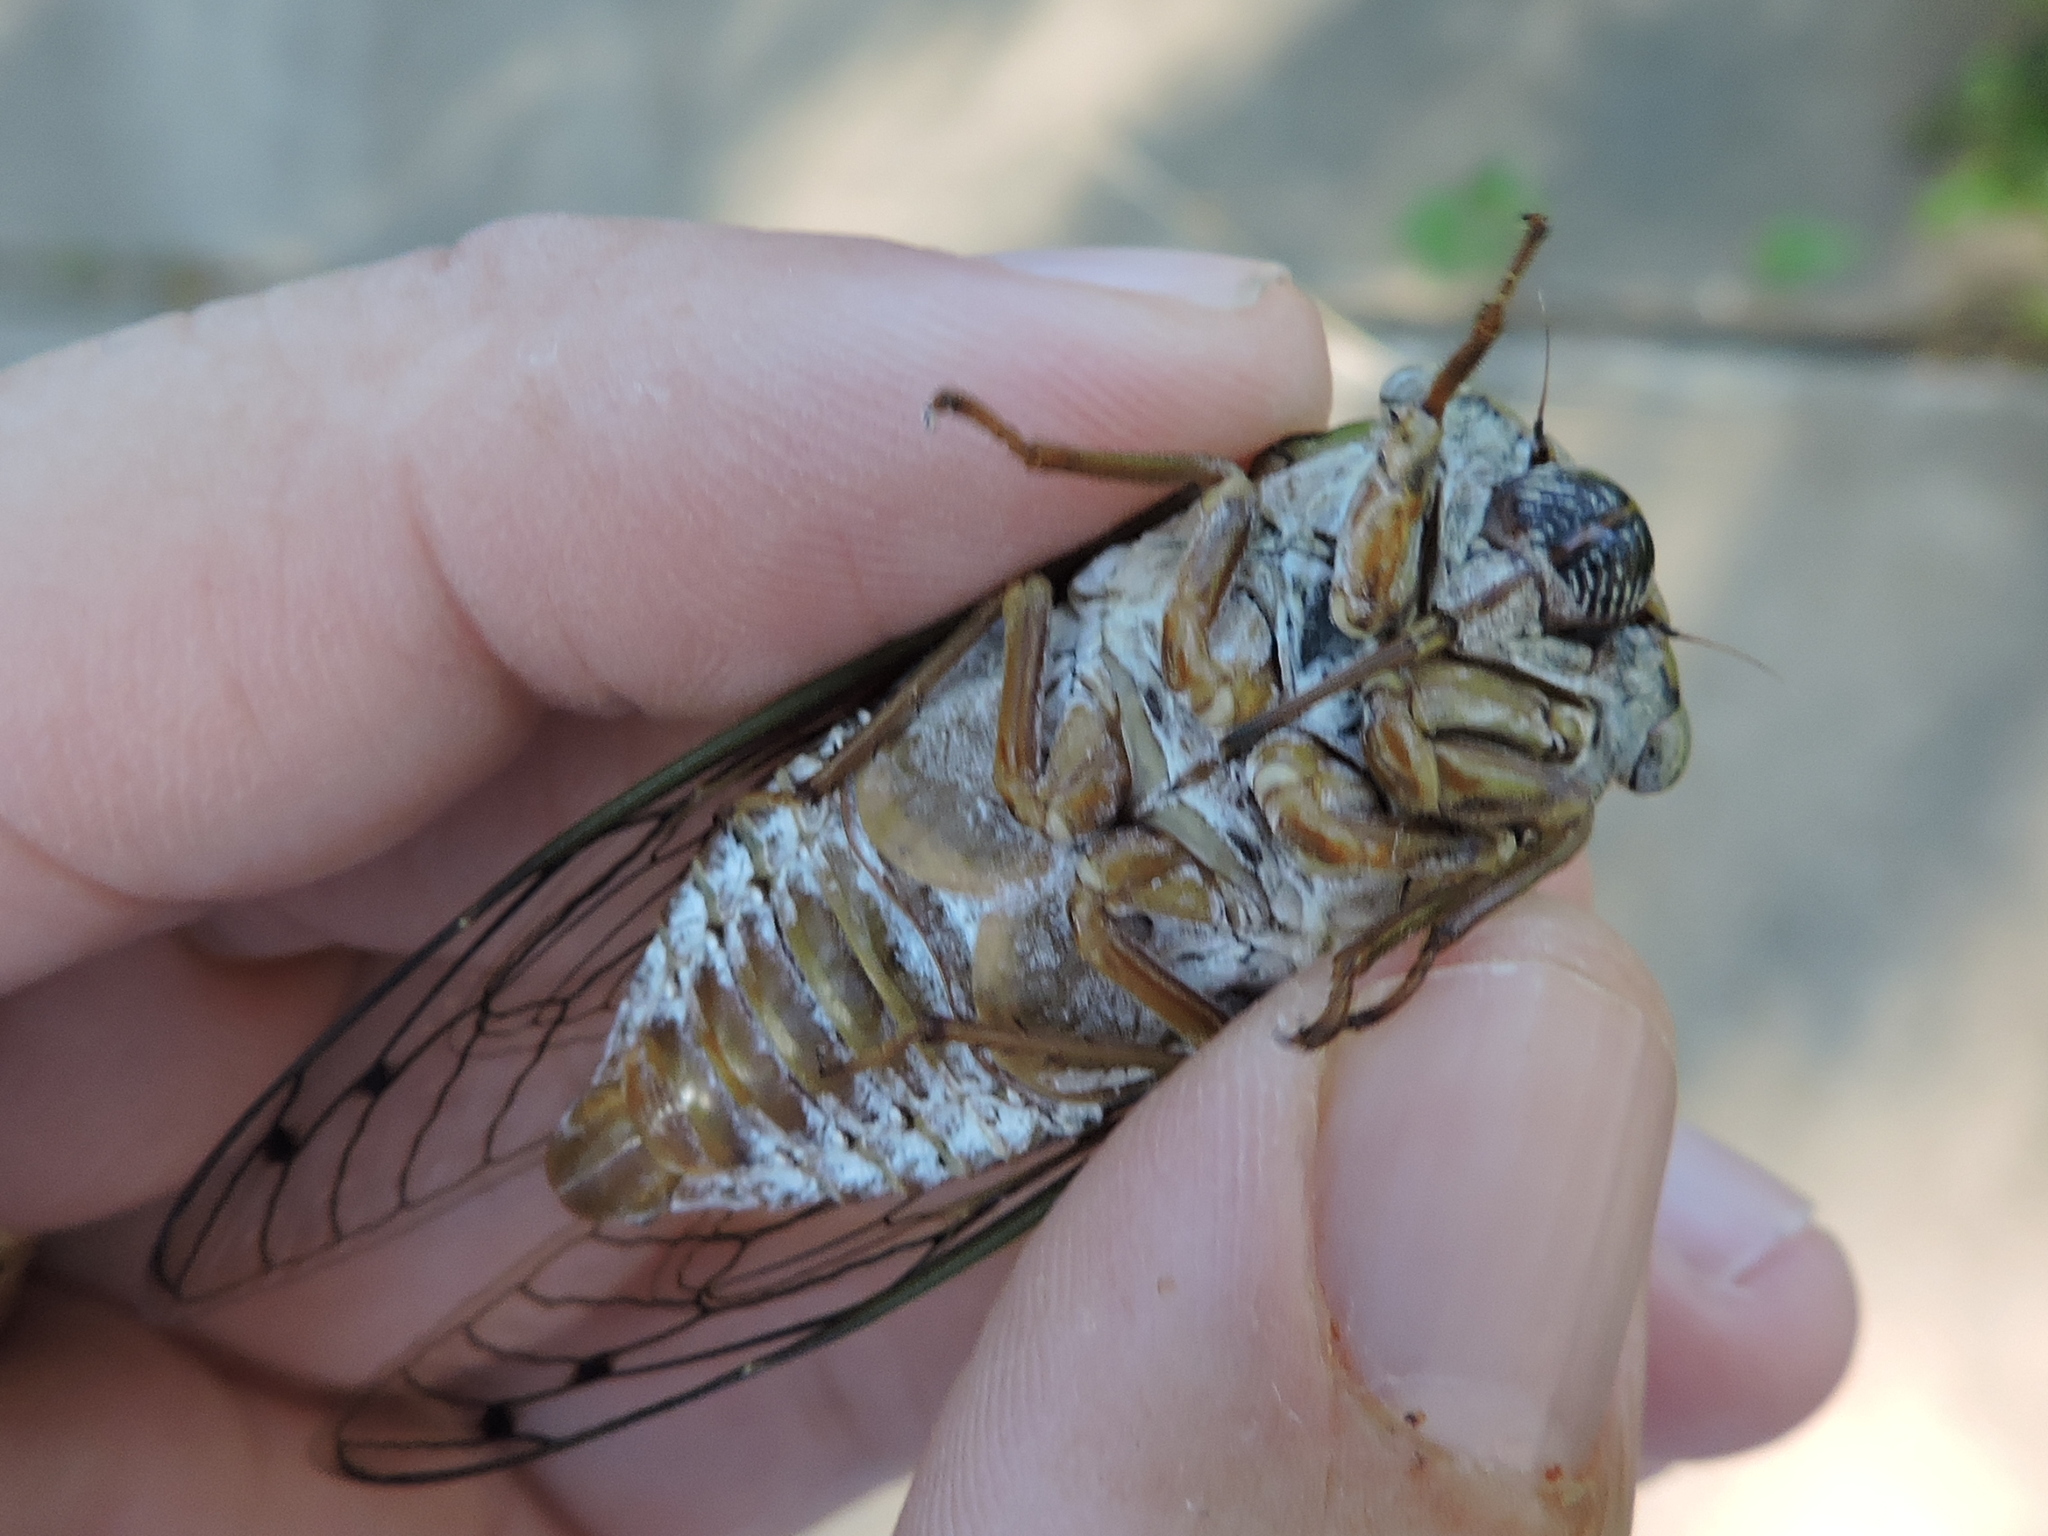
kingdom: Animalia
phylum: Arthropoda
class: Insecta
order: Hemiptera
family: Cicadidae
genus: Megatibicen
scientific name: Megatibicen resh
